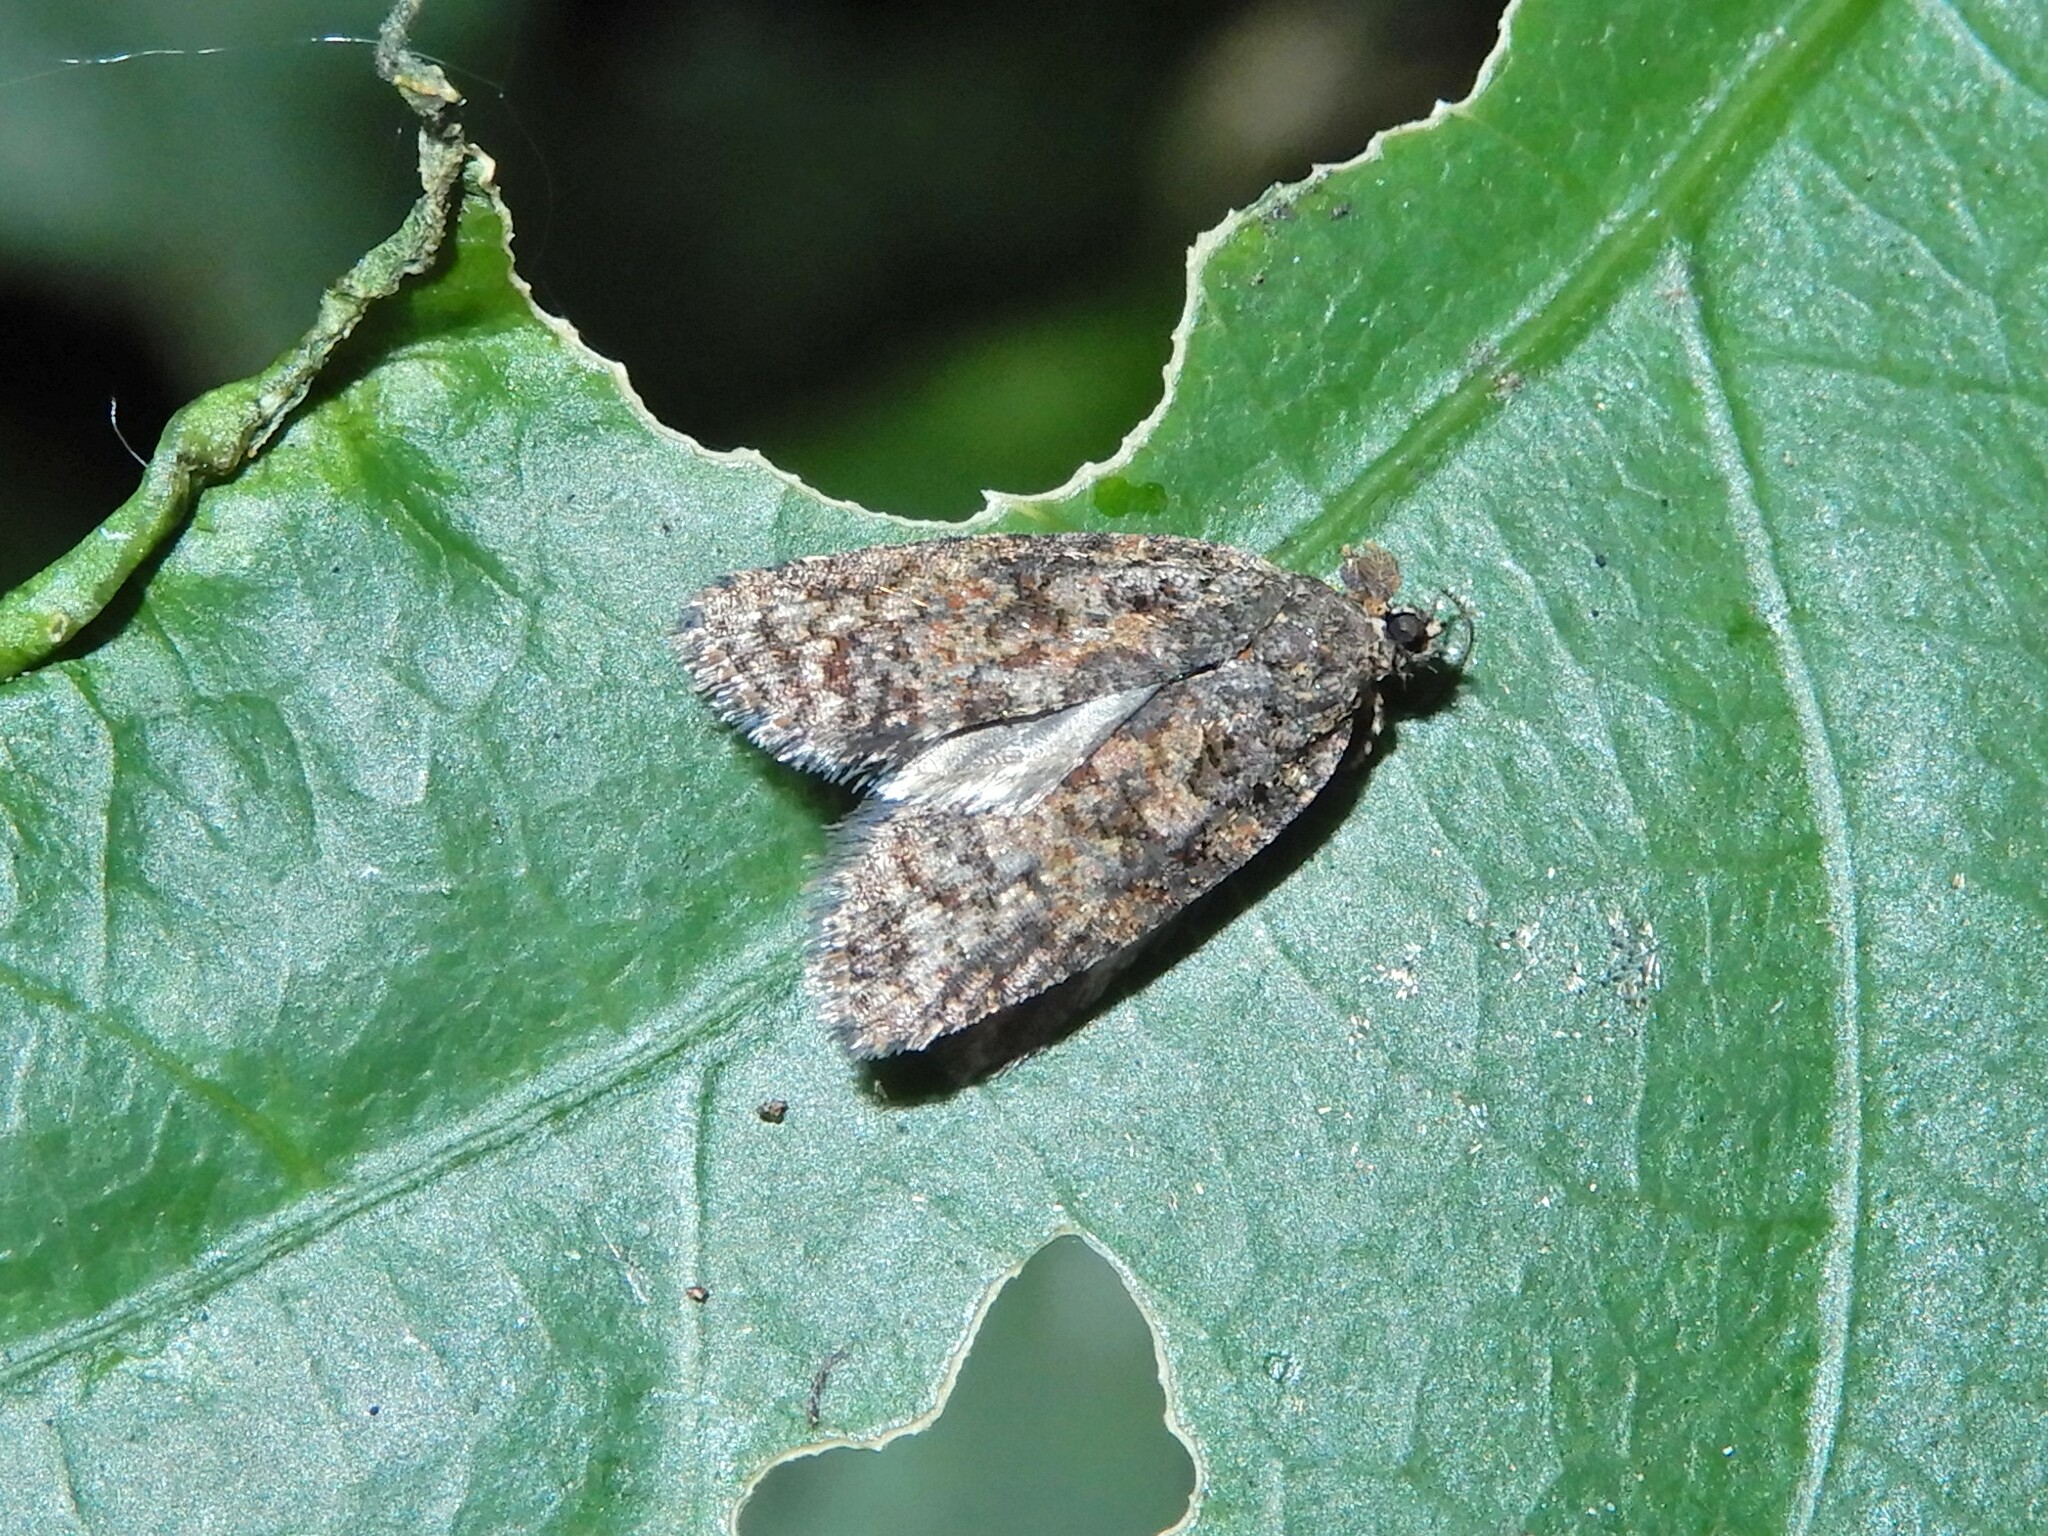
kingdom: Animalia
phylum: Arthropoda
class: Insecta
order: Lepidoptera
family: Tortricidae
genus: Capua
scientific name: Capua intractana
